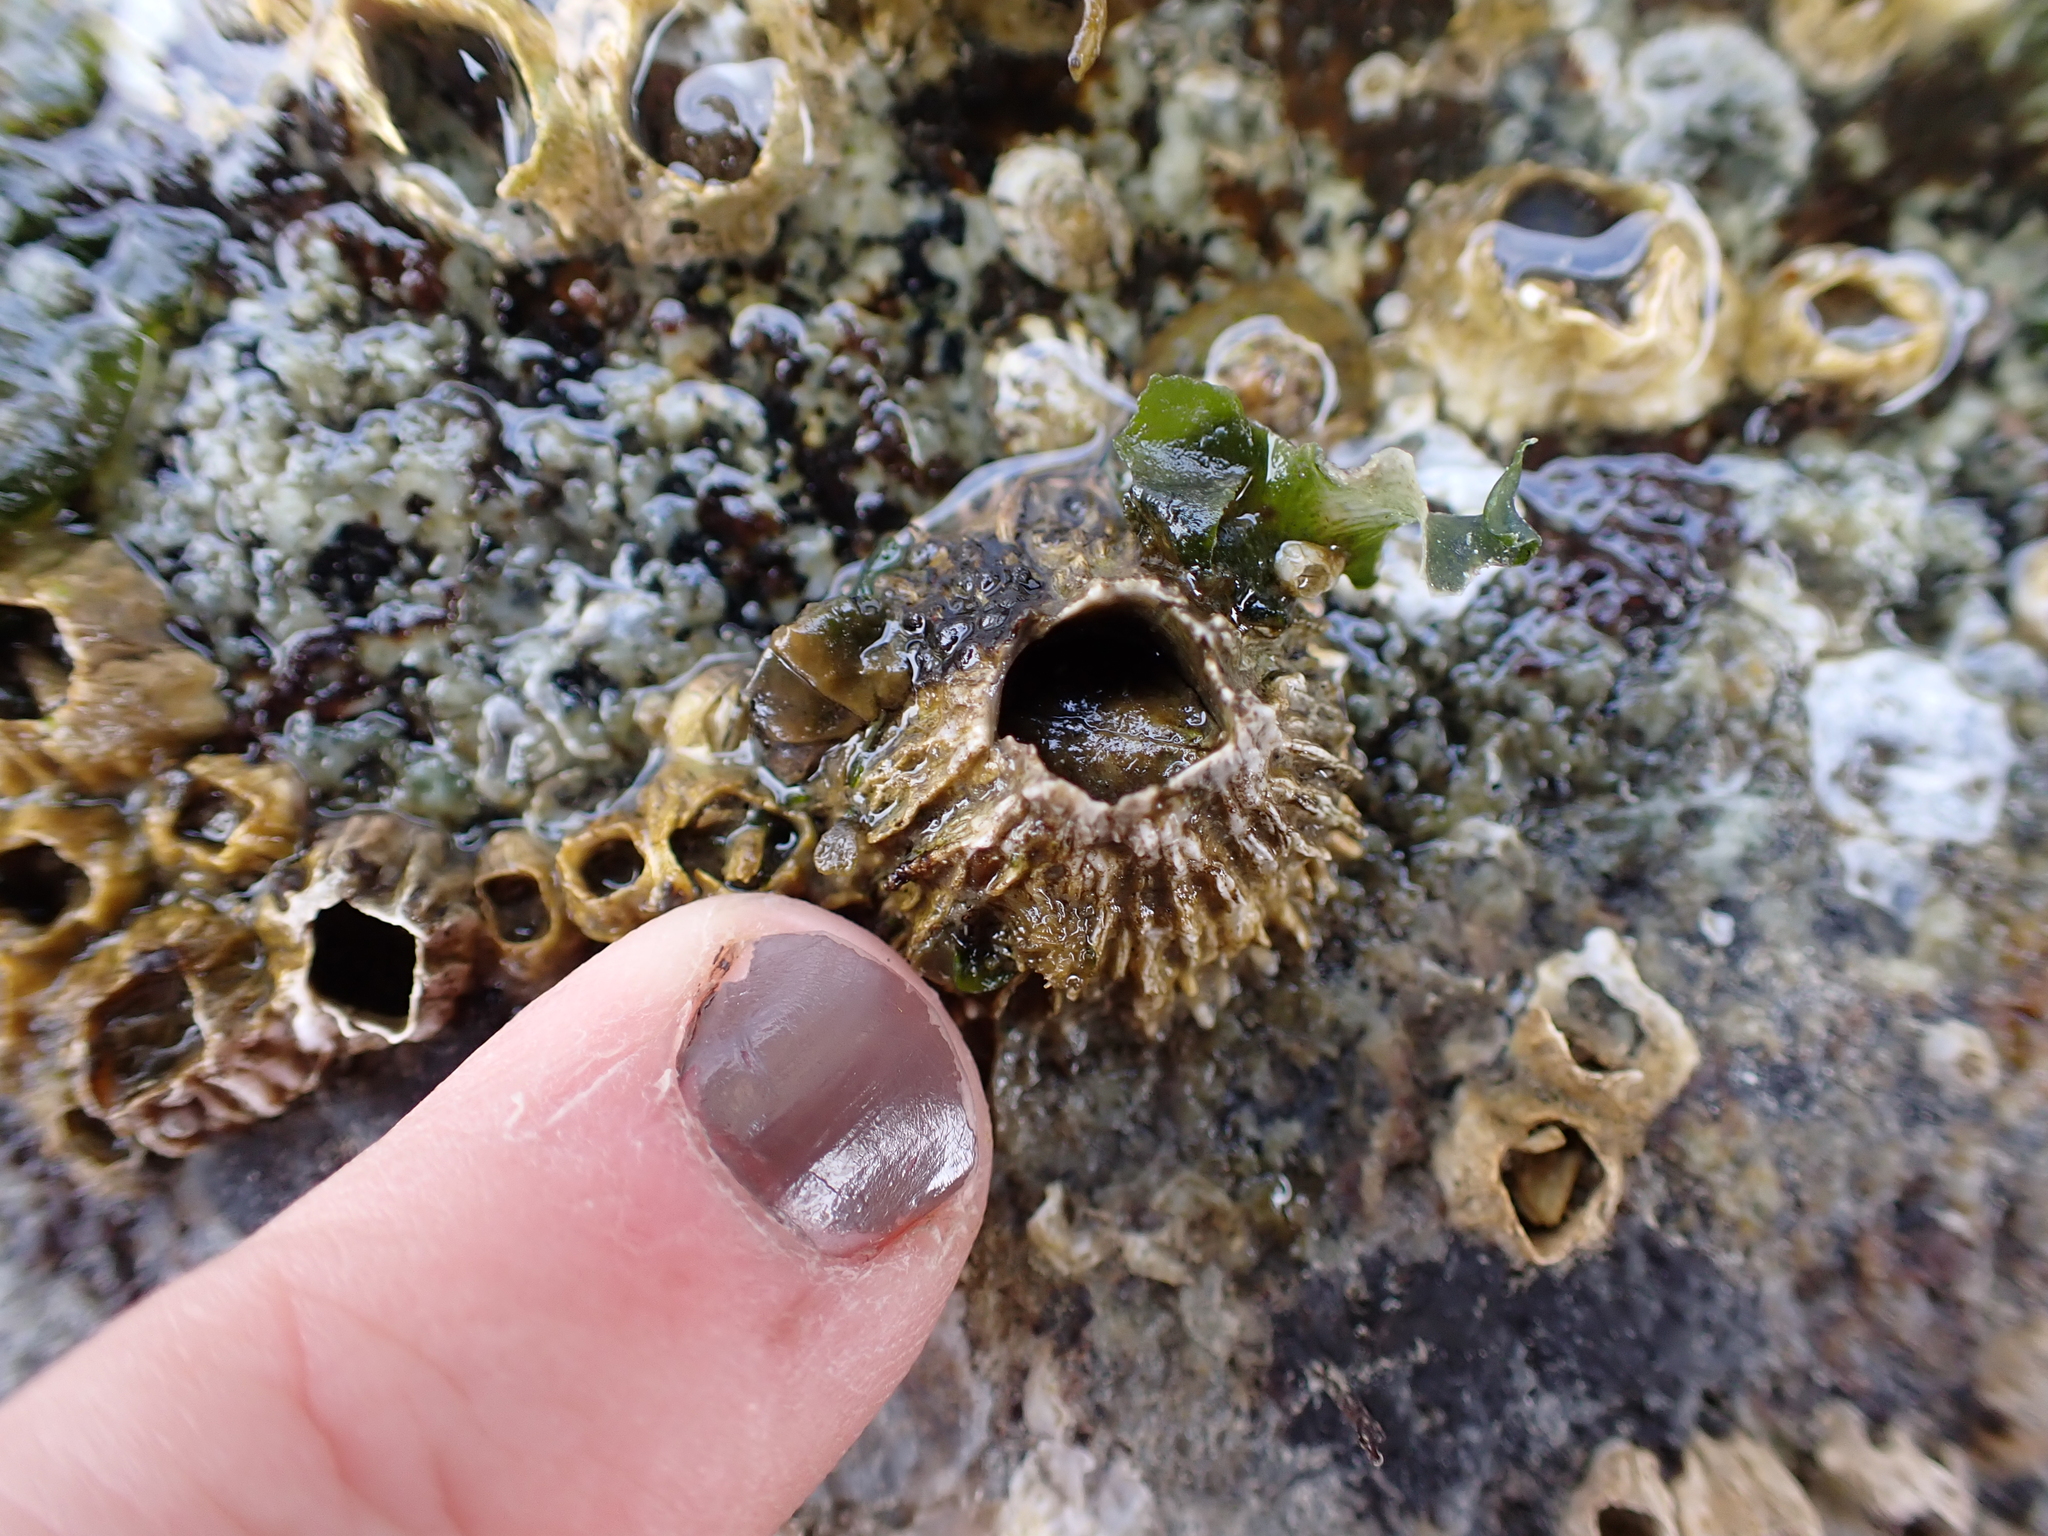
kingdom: Animalia
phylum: Arthropoda
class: Maxillopoda
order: Sessilia
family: Archaeobalanidae
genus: Semibalanus
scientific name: Semibalanus cariosus
